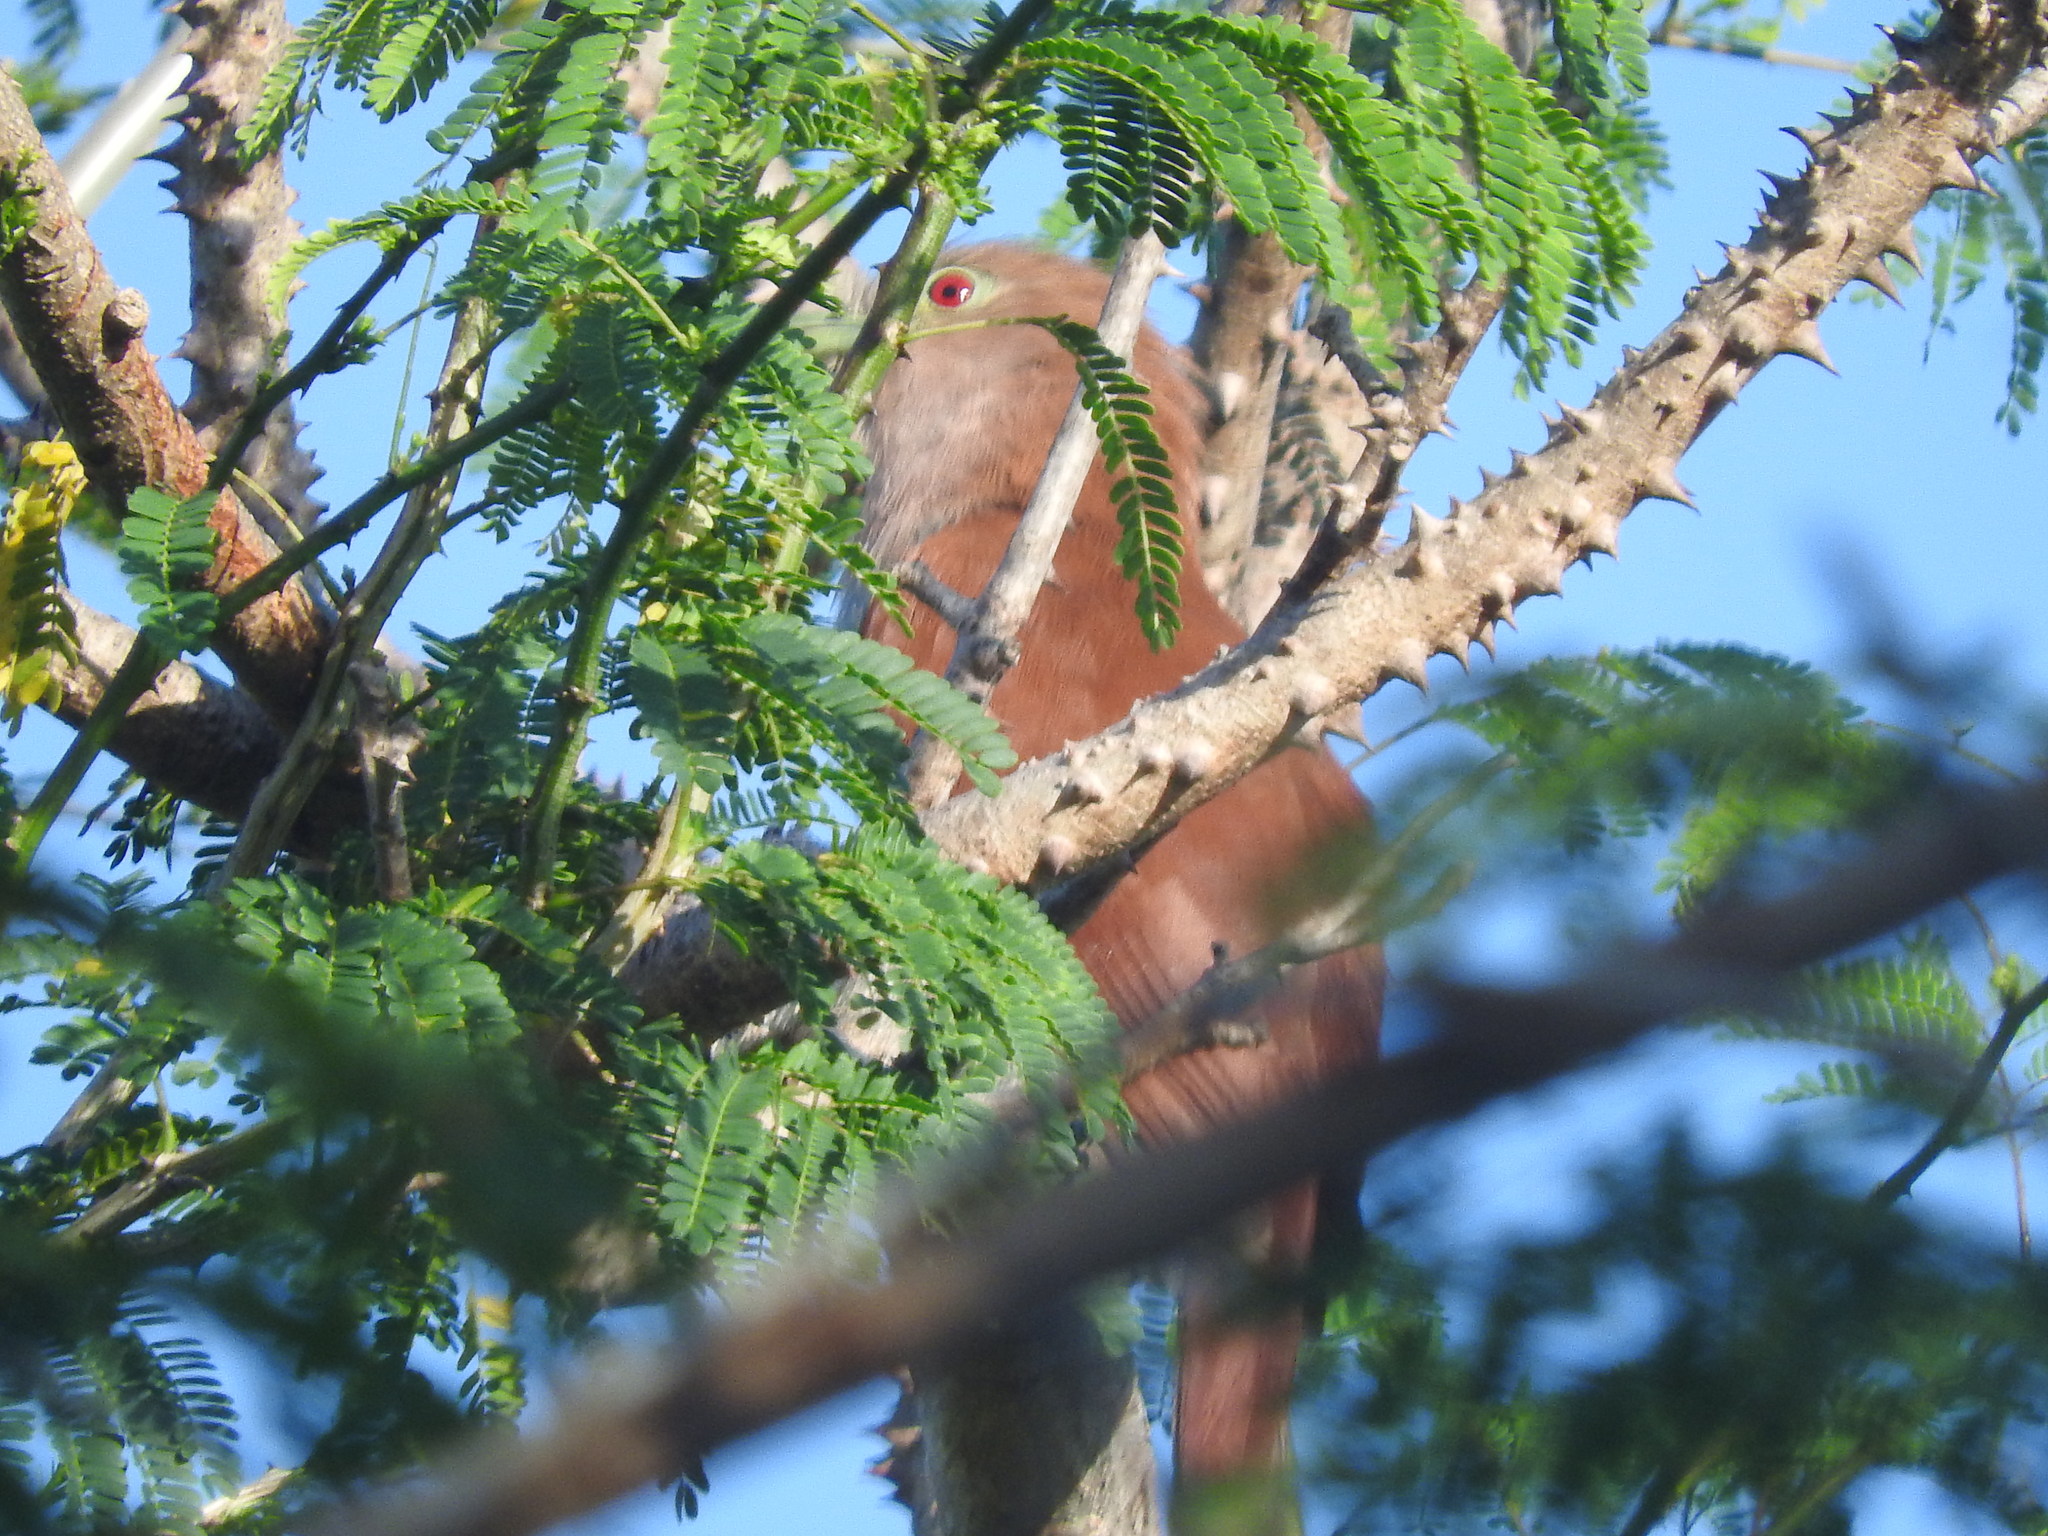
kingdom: Animalia
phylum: Chordata
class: Aves
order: Cuculiformes
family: Cuculidae
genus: Piaya
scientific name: Piaya cayana
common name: Squirrel cuckoo
